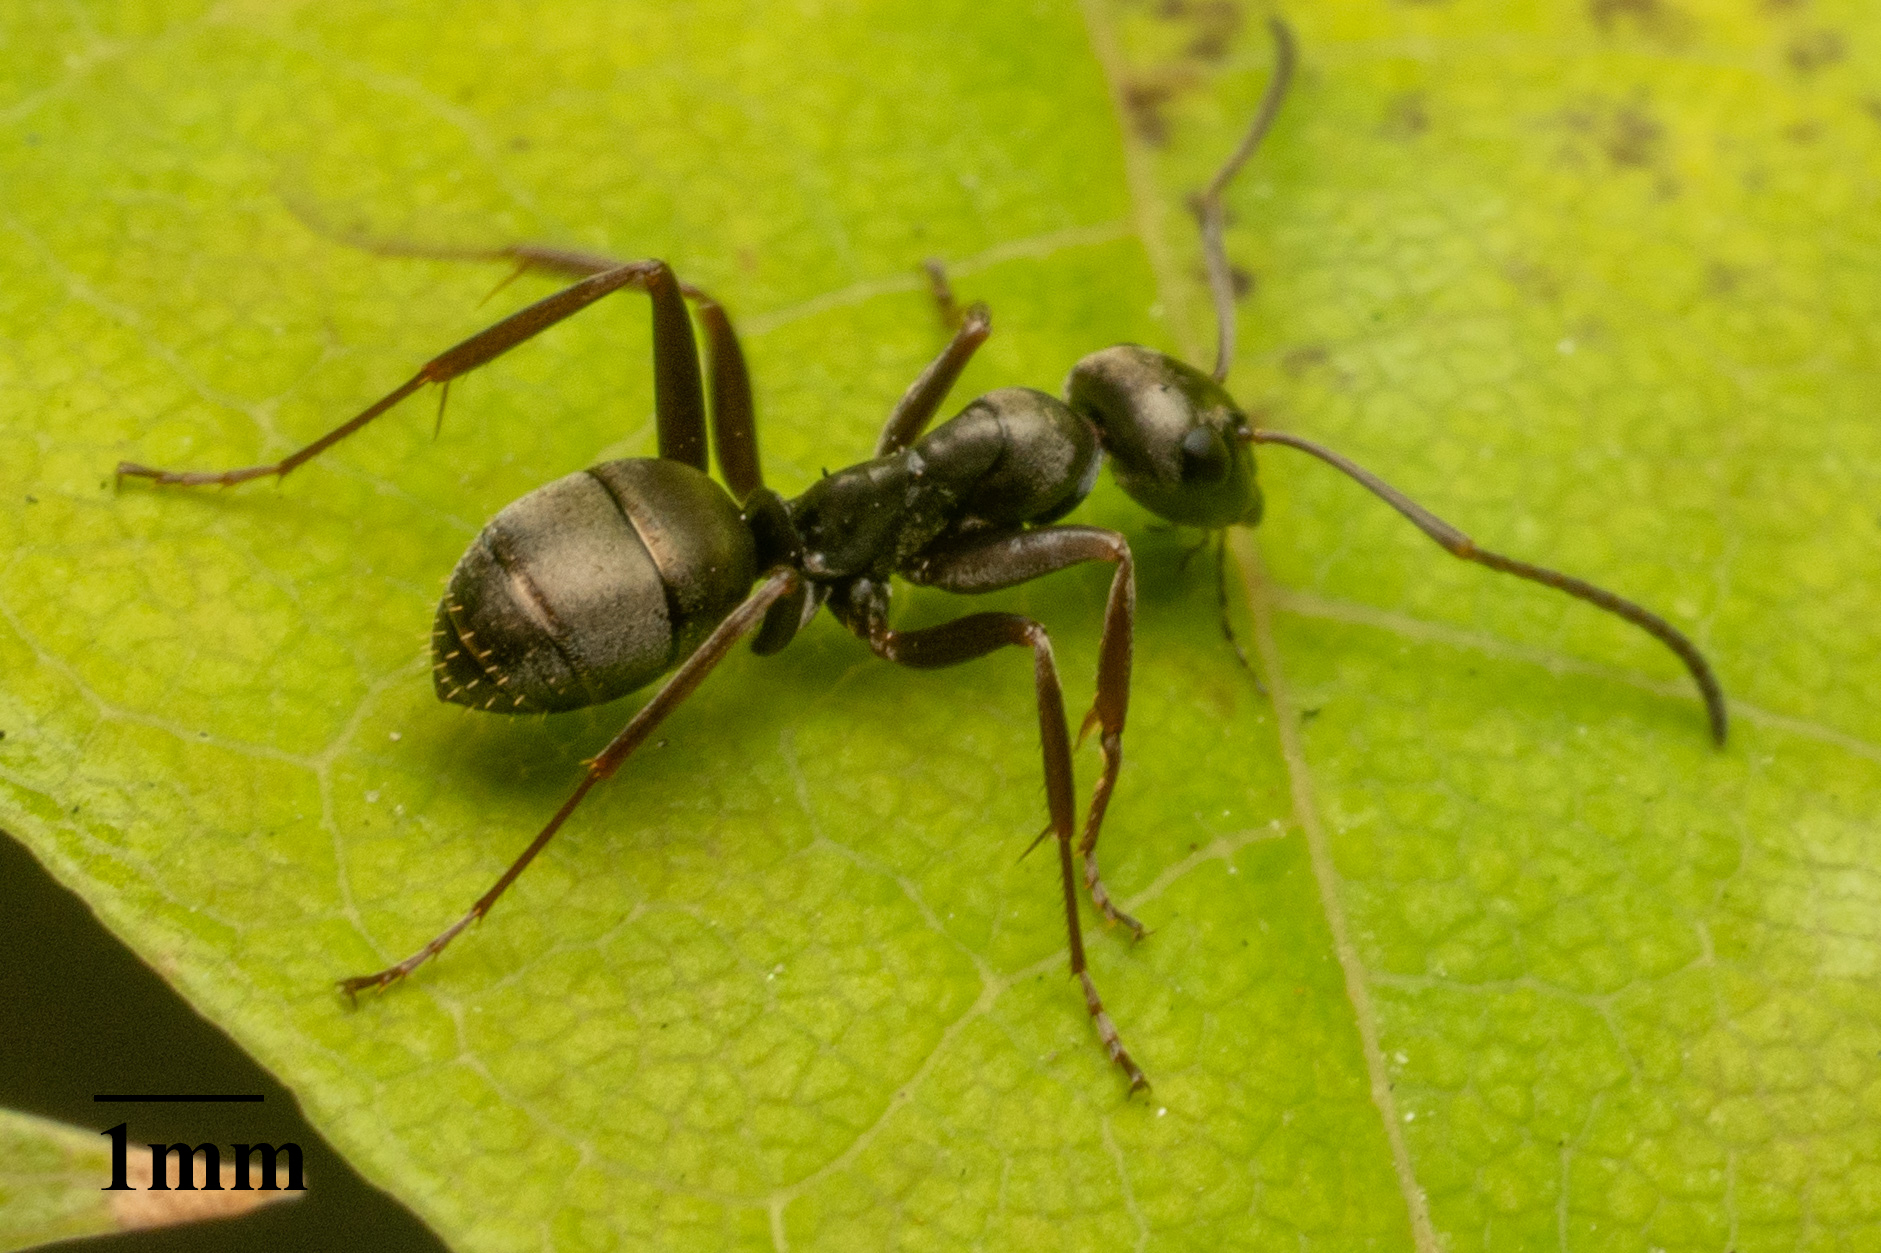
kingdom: Animalia
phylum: Arthropoda
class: Insecta
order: Hymenoptera
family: Formicidae
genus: Formica
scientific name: Formica fusca
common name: Silky ant
